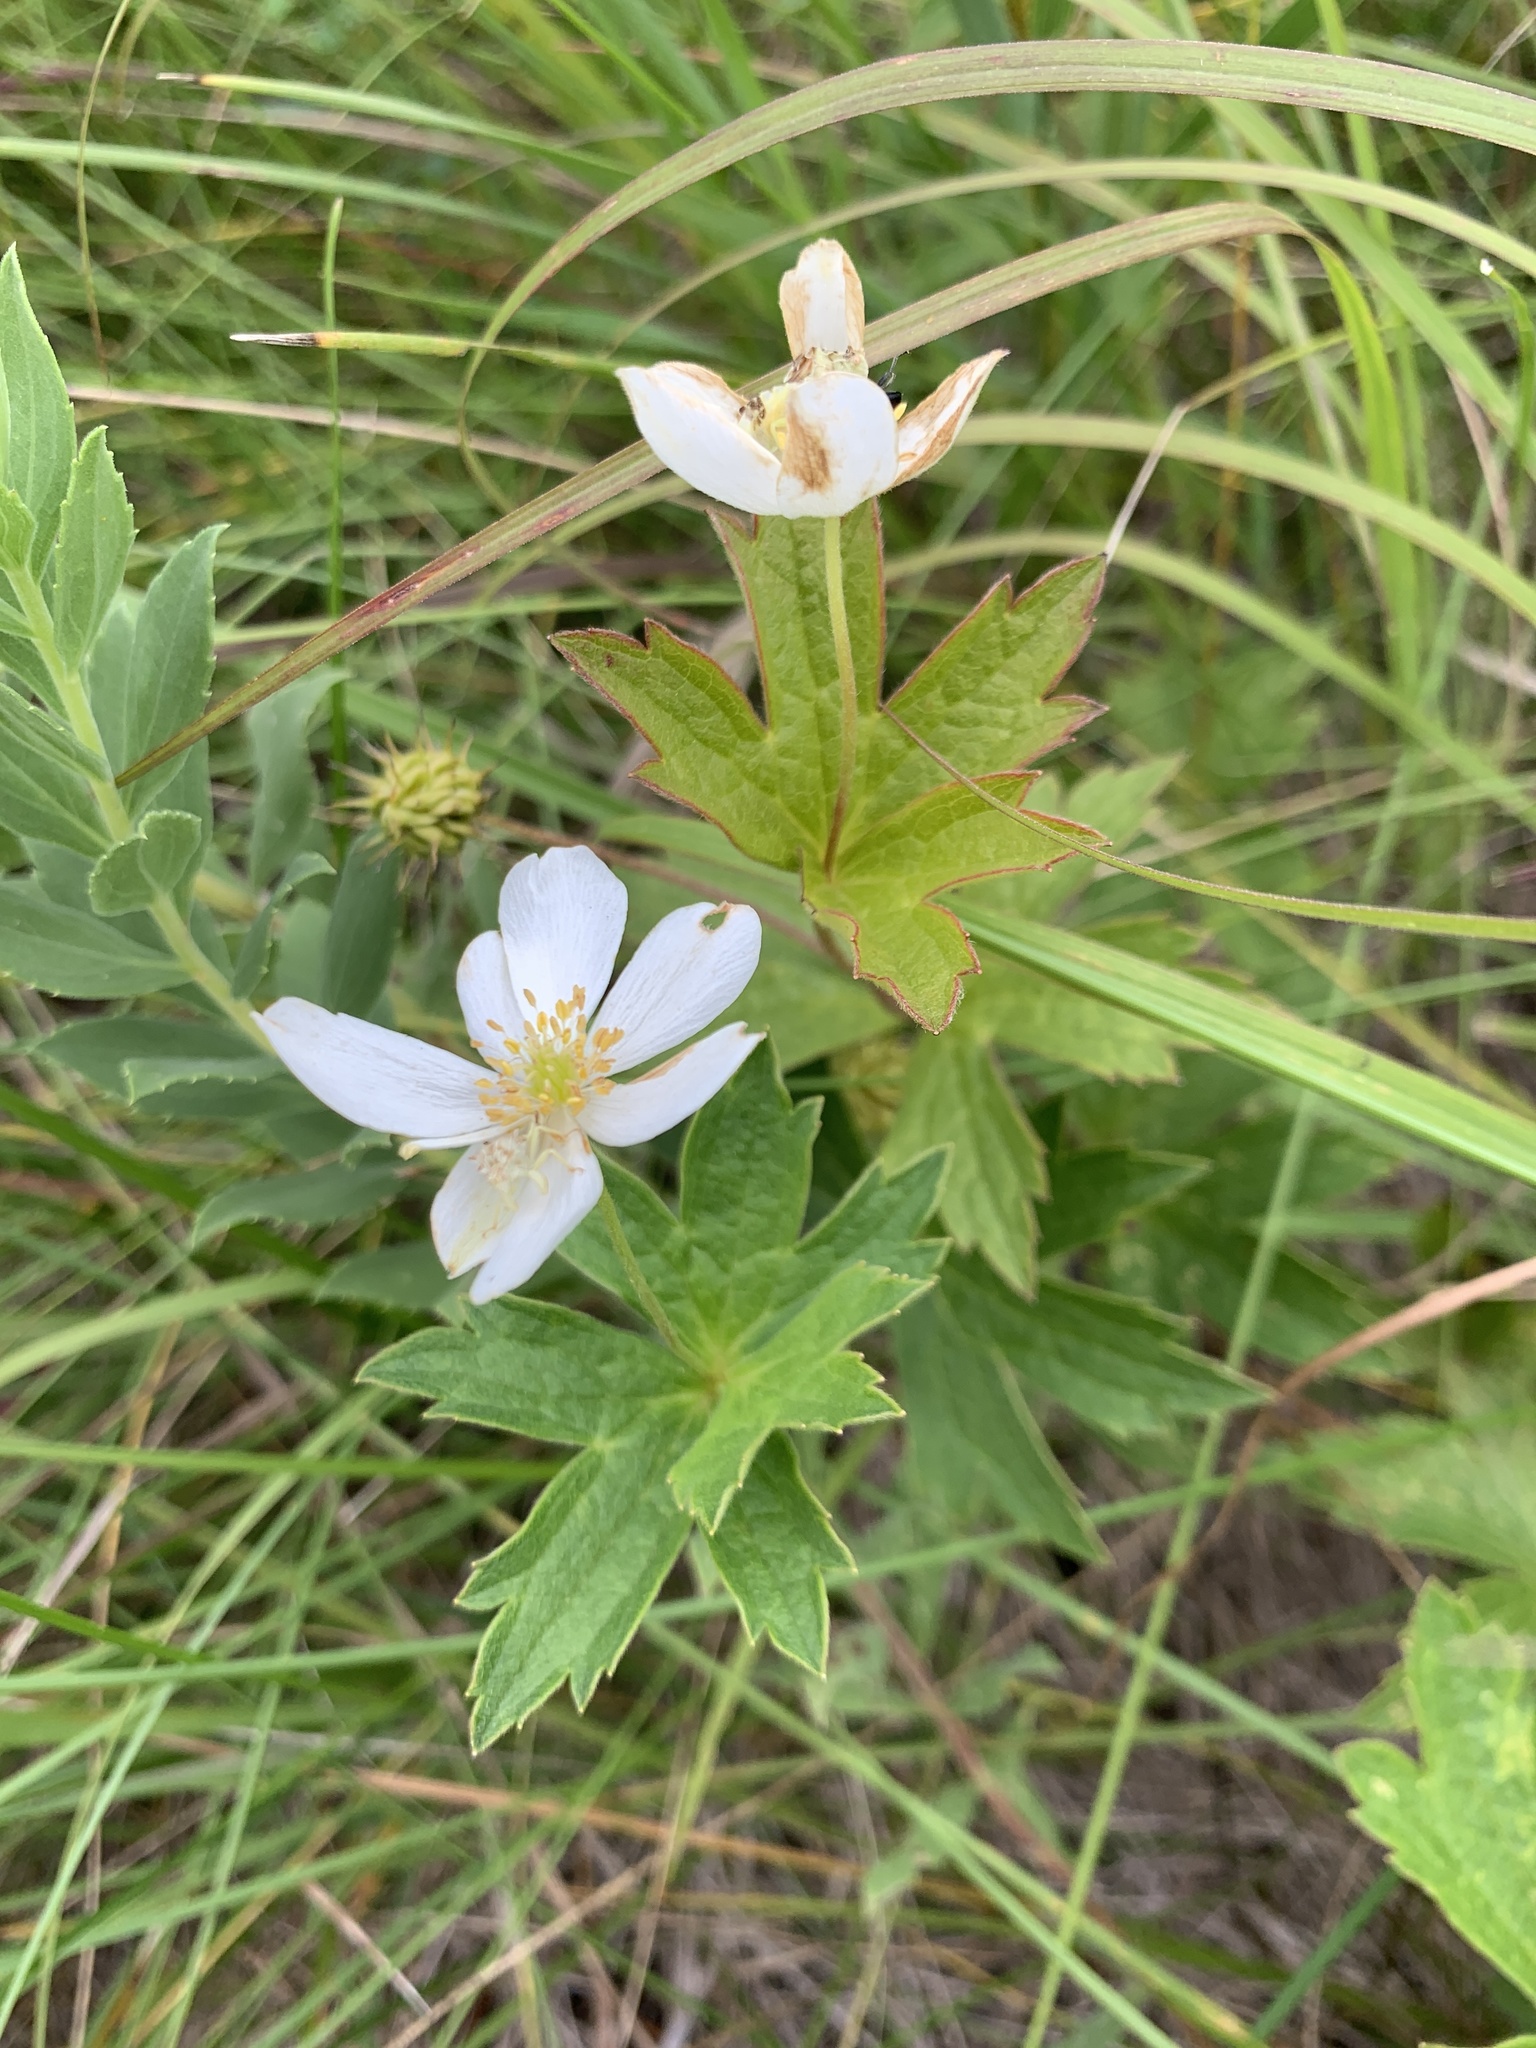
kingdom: Plantae
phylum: Tracheophyta
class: Magnoliopsida
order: Ranunculales
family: Ranunculaceae
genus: Anemonastrum
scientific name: Anemonastrum canadense
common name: Canada anemone
